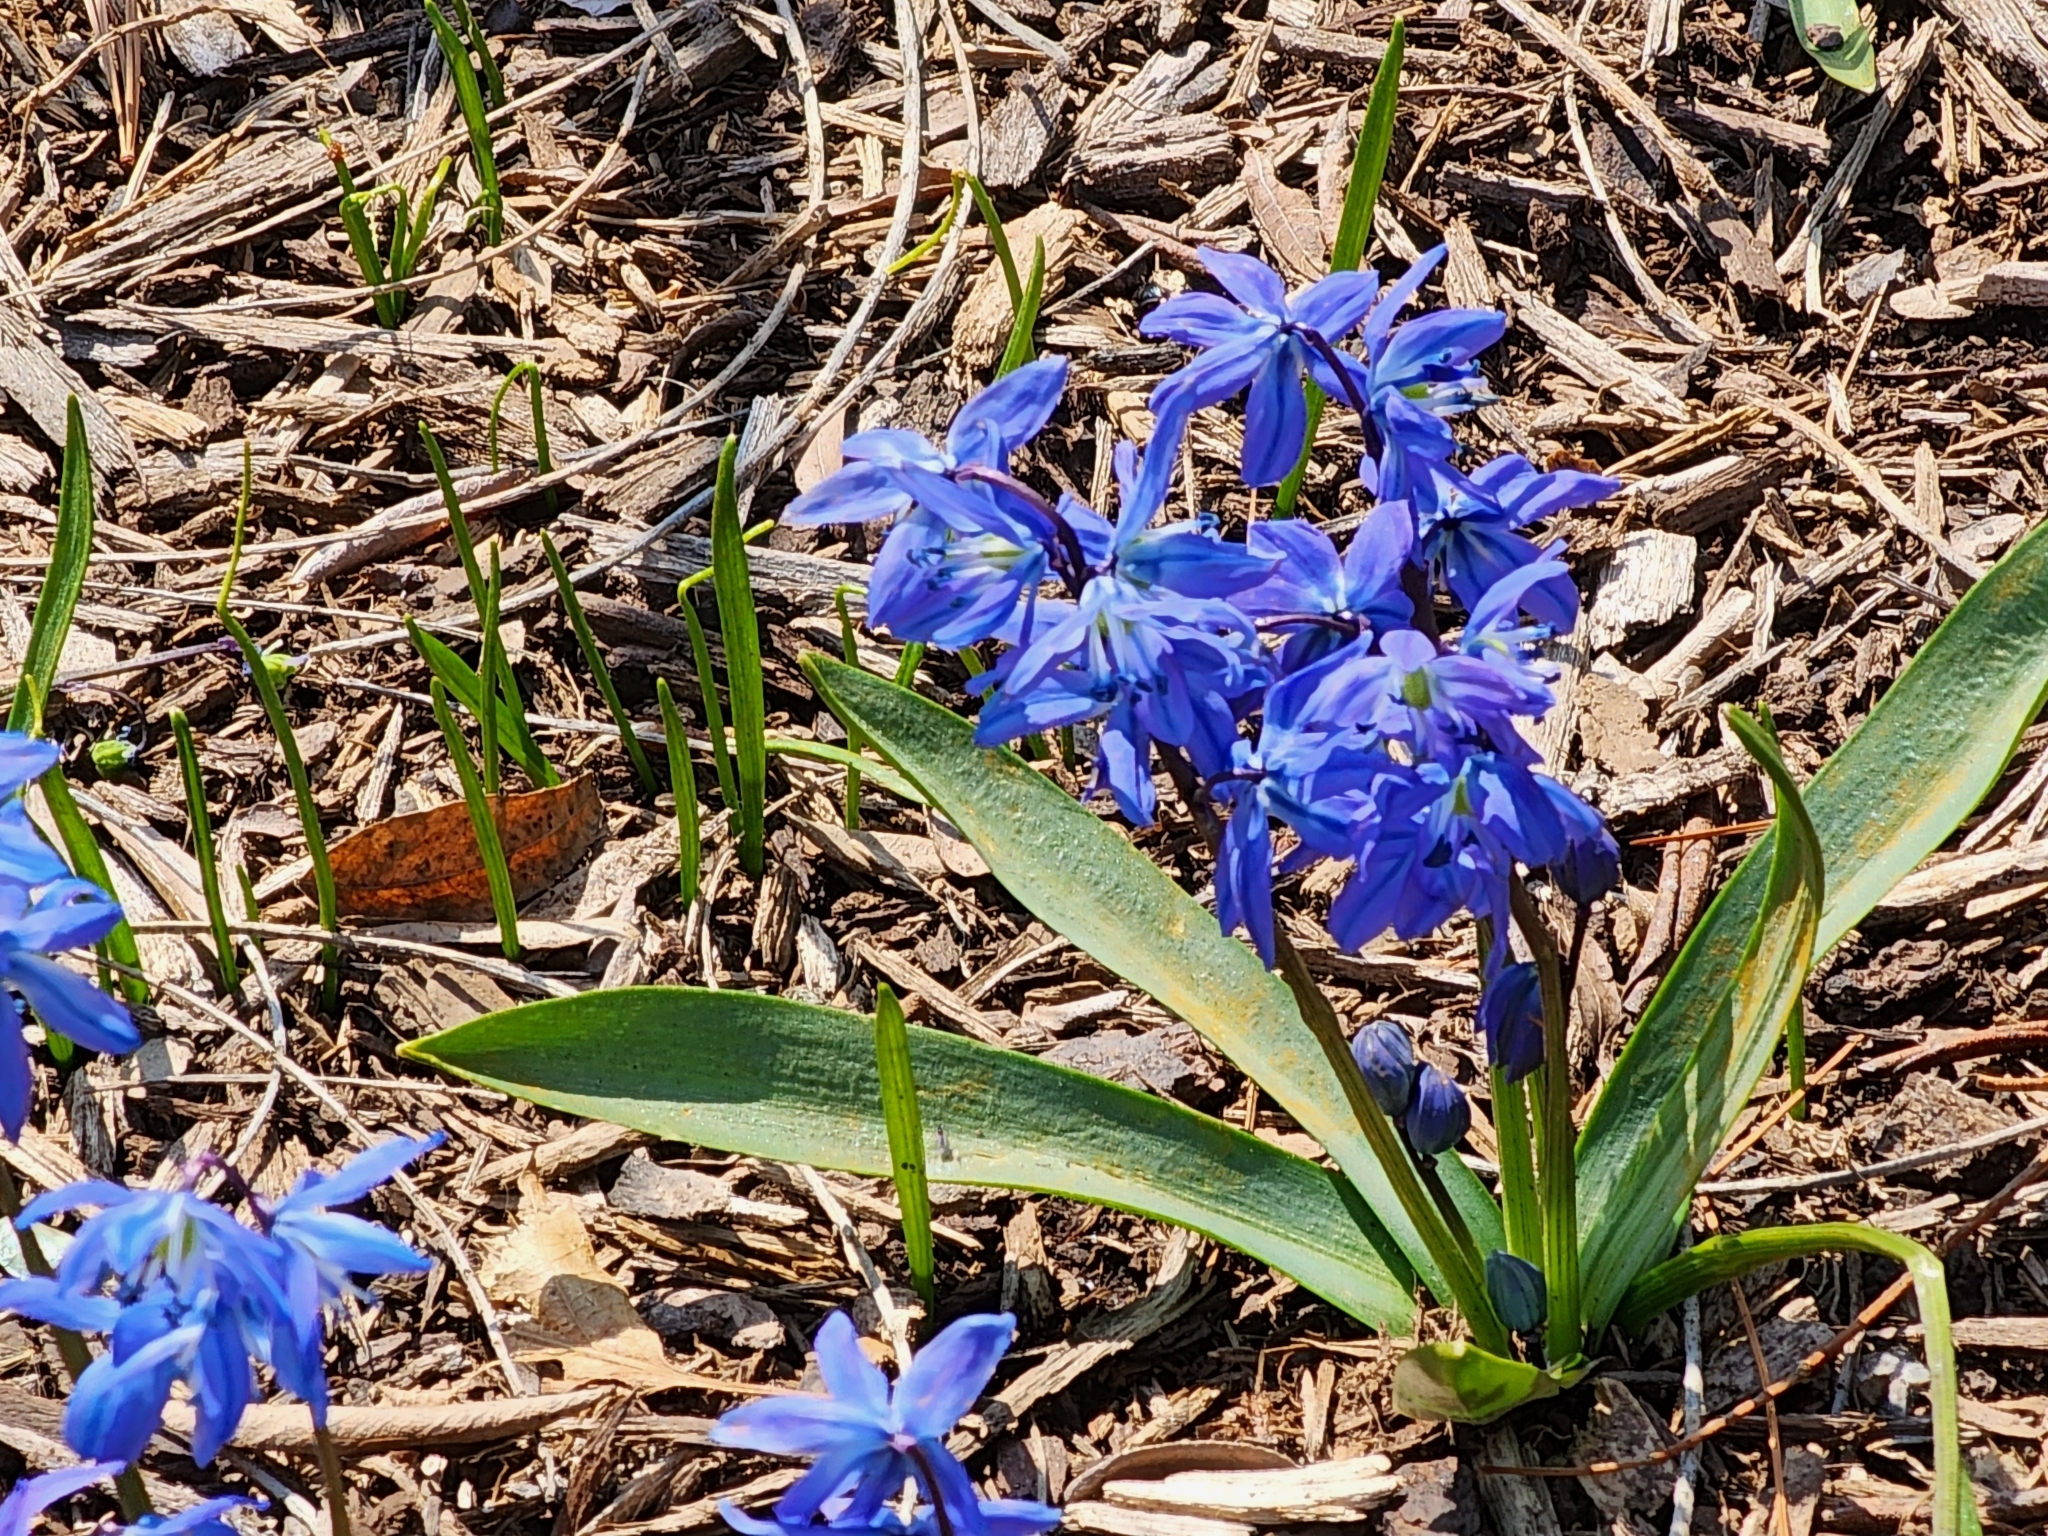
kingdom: Plantae
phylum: Tracheophyta
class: Liliopsida
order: Asparagales
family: Asparagaceae
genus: Scilla
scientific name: Scilla siberica
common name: Siberian squill
